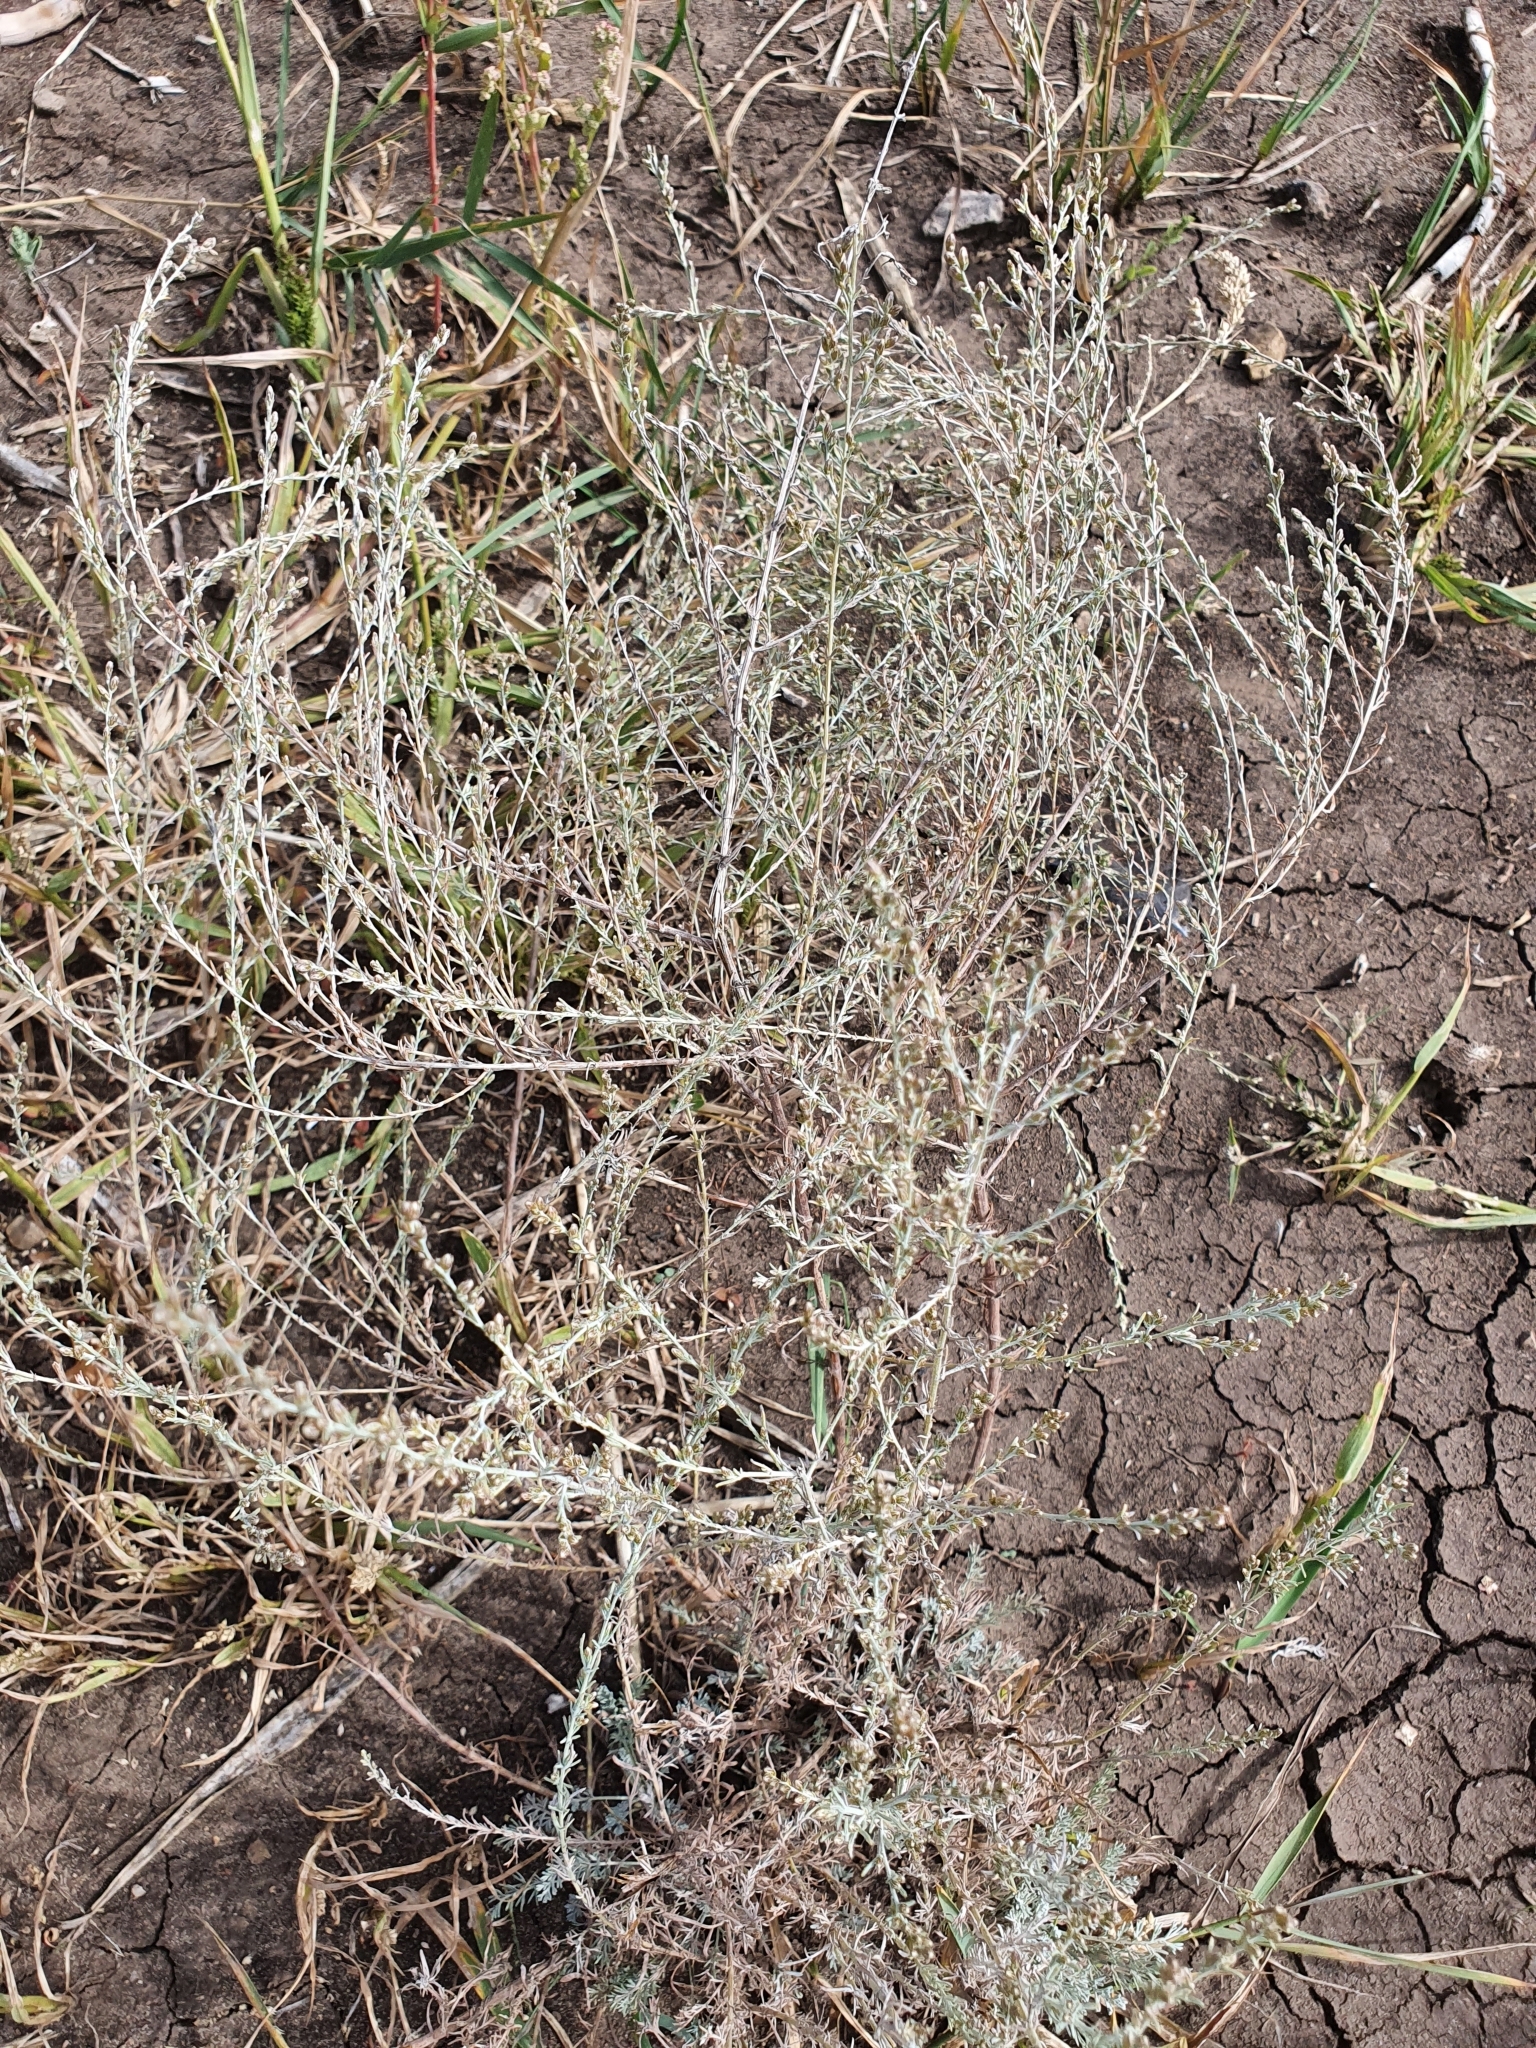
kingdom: Plantae
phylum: Tracheophyta
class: Magnoliopsida
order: Asterales
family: Asteraceae
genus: Artemisia
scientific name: Artemisia nitrosa
